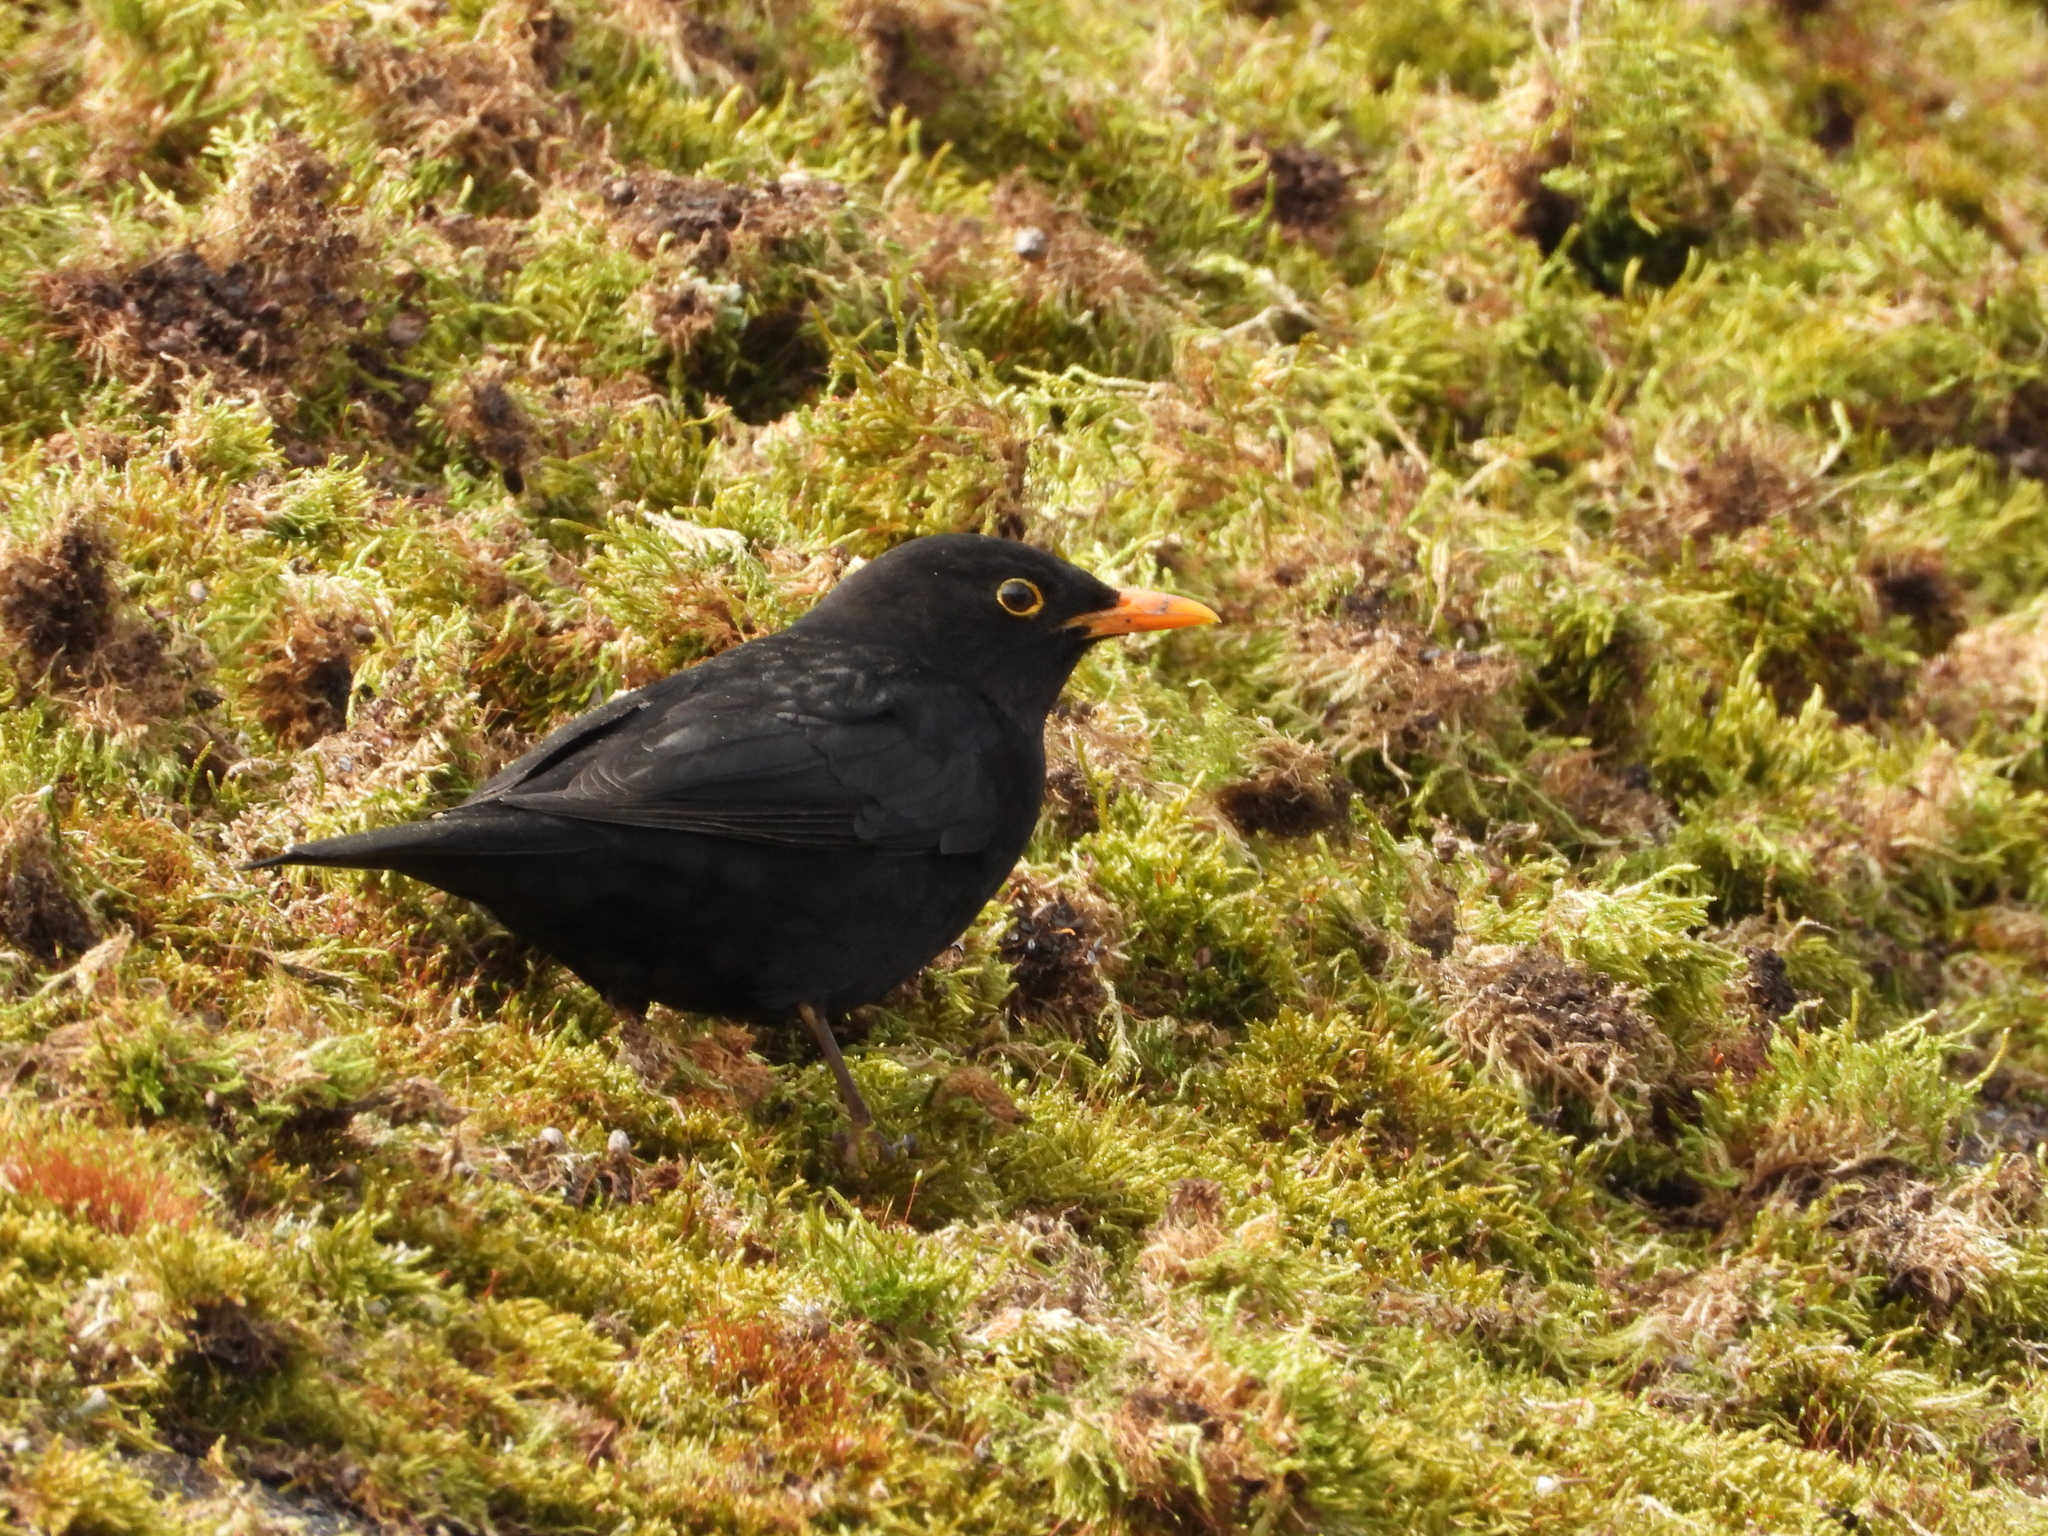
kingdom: Animalia
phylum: Chordata
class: Aves
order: Passeriformes
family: Turdidae
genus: Turdus
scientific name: Turdus merula
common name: Common blackbird
